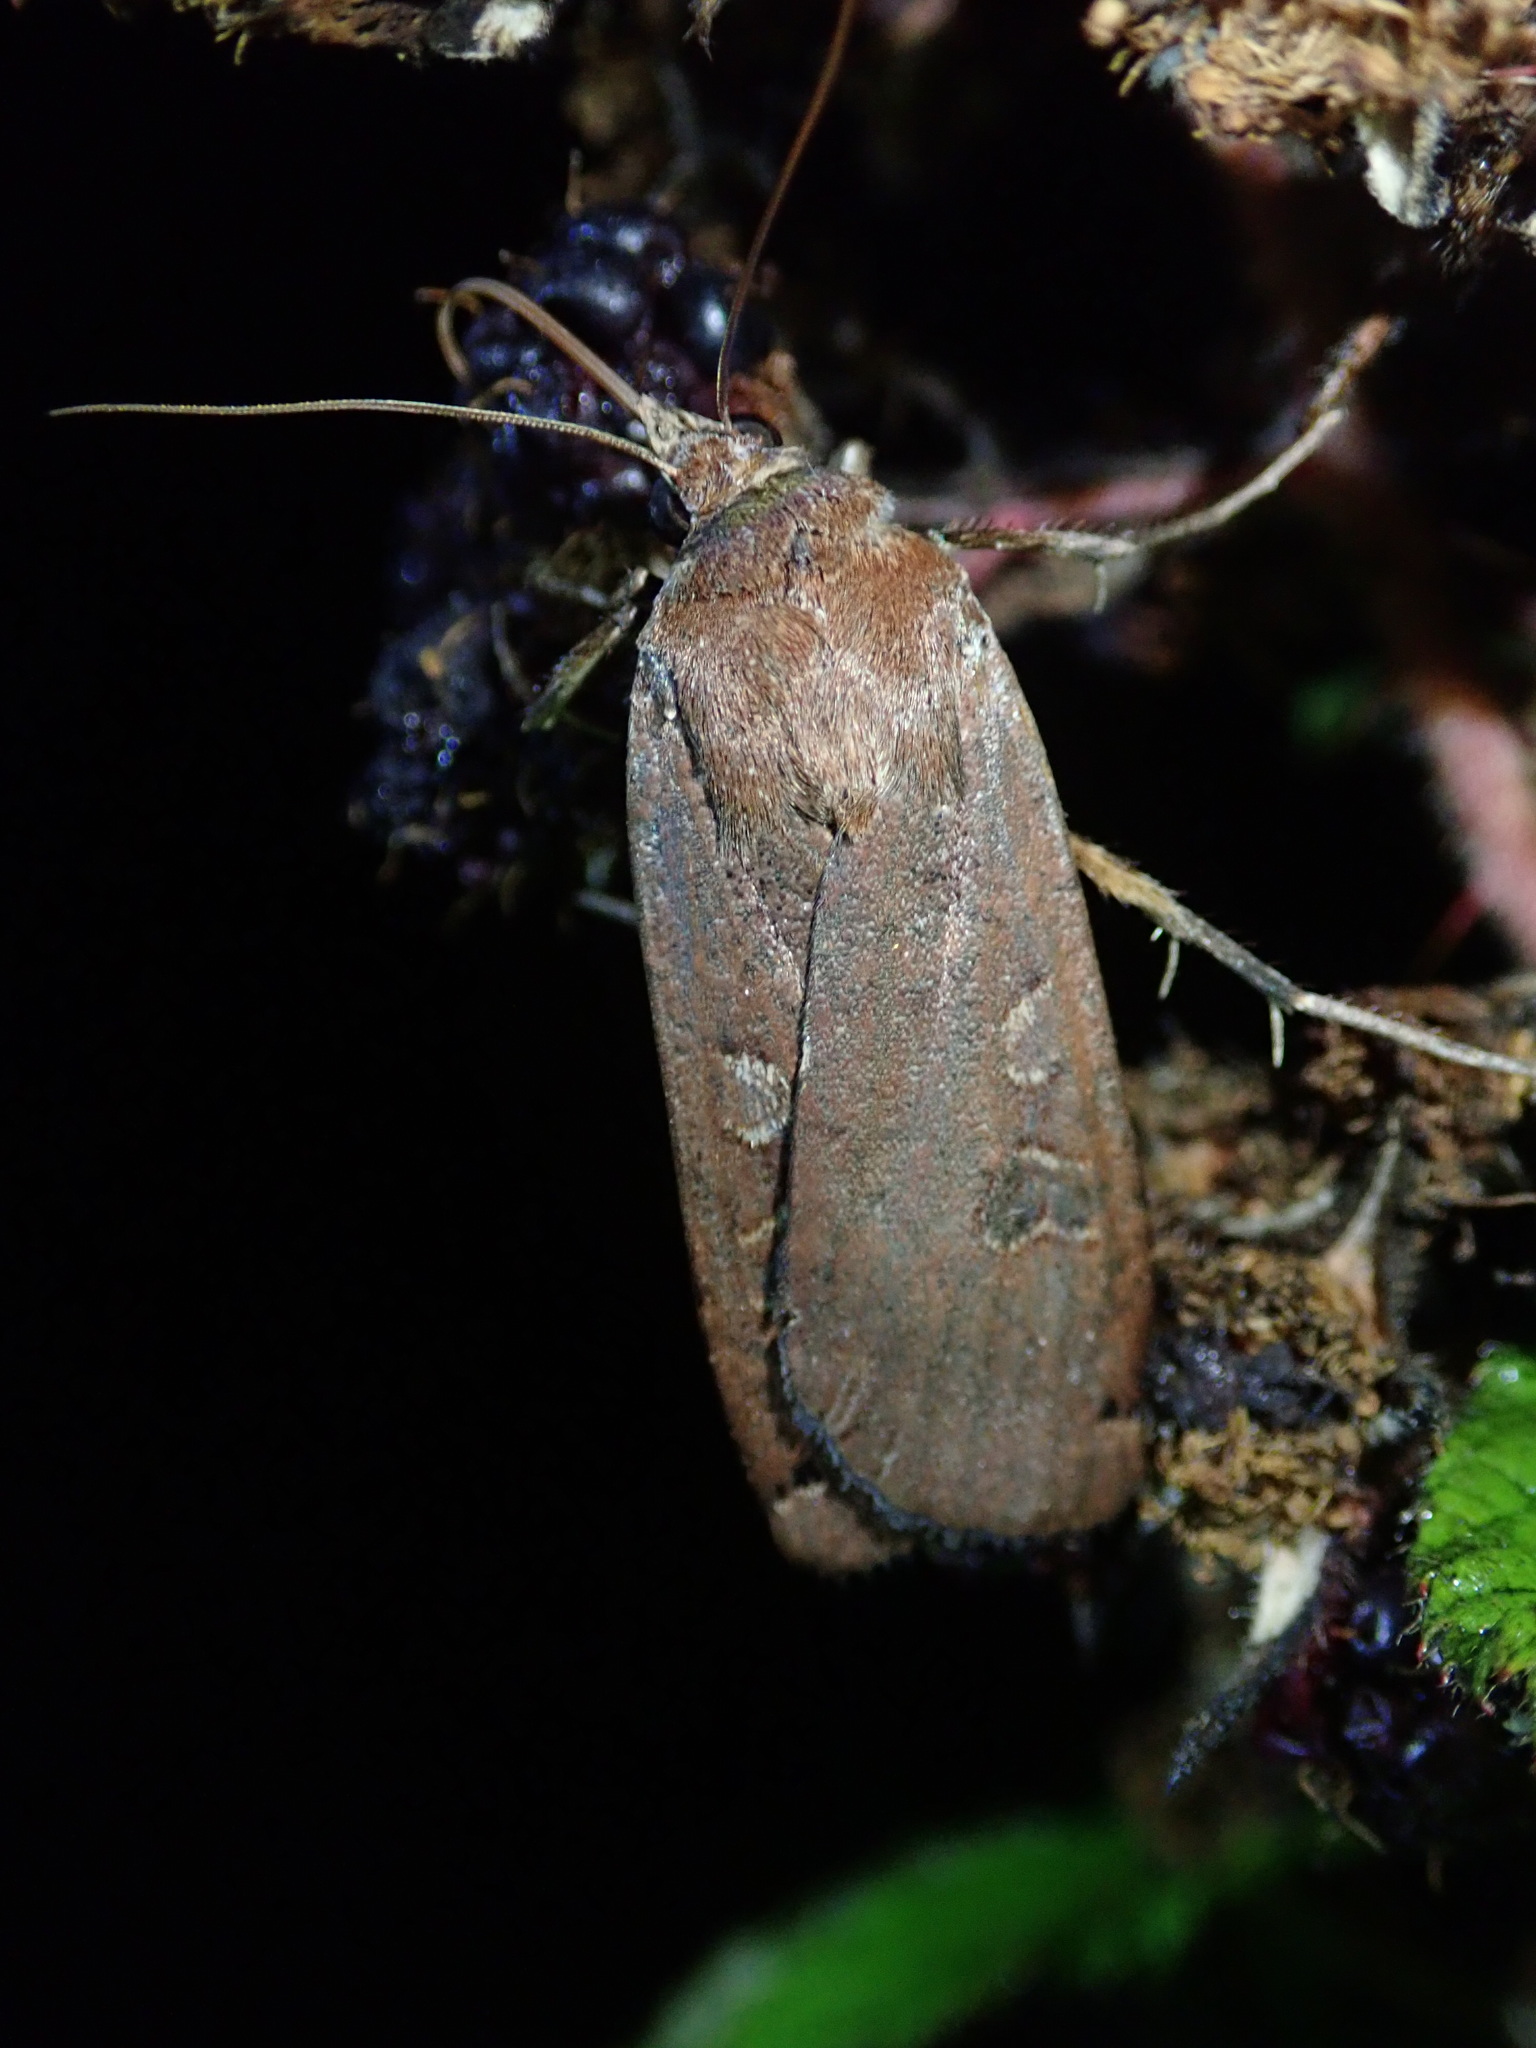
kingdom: Animalia
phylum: Arthropoda
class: Insecta
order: Lepidoptera
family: Noctuidae
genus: Noctua
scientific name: Noctua pronuba
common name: Large yellow underwing
